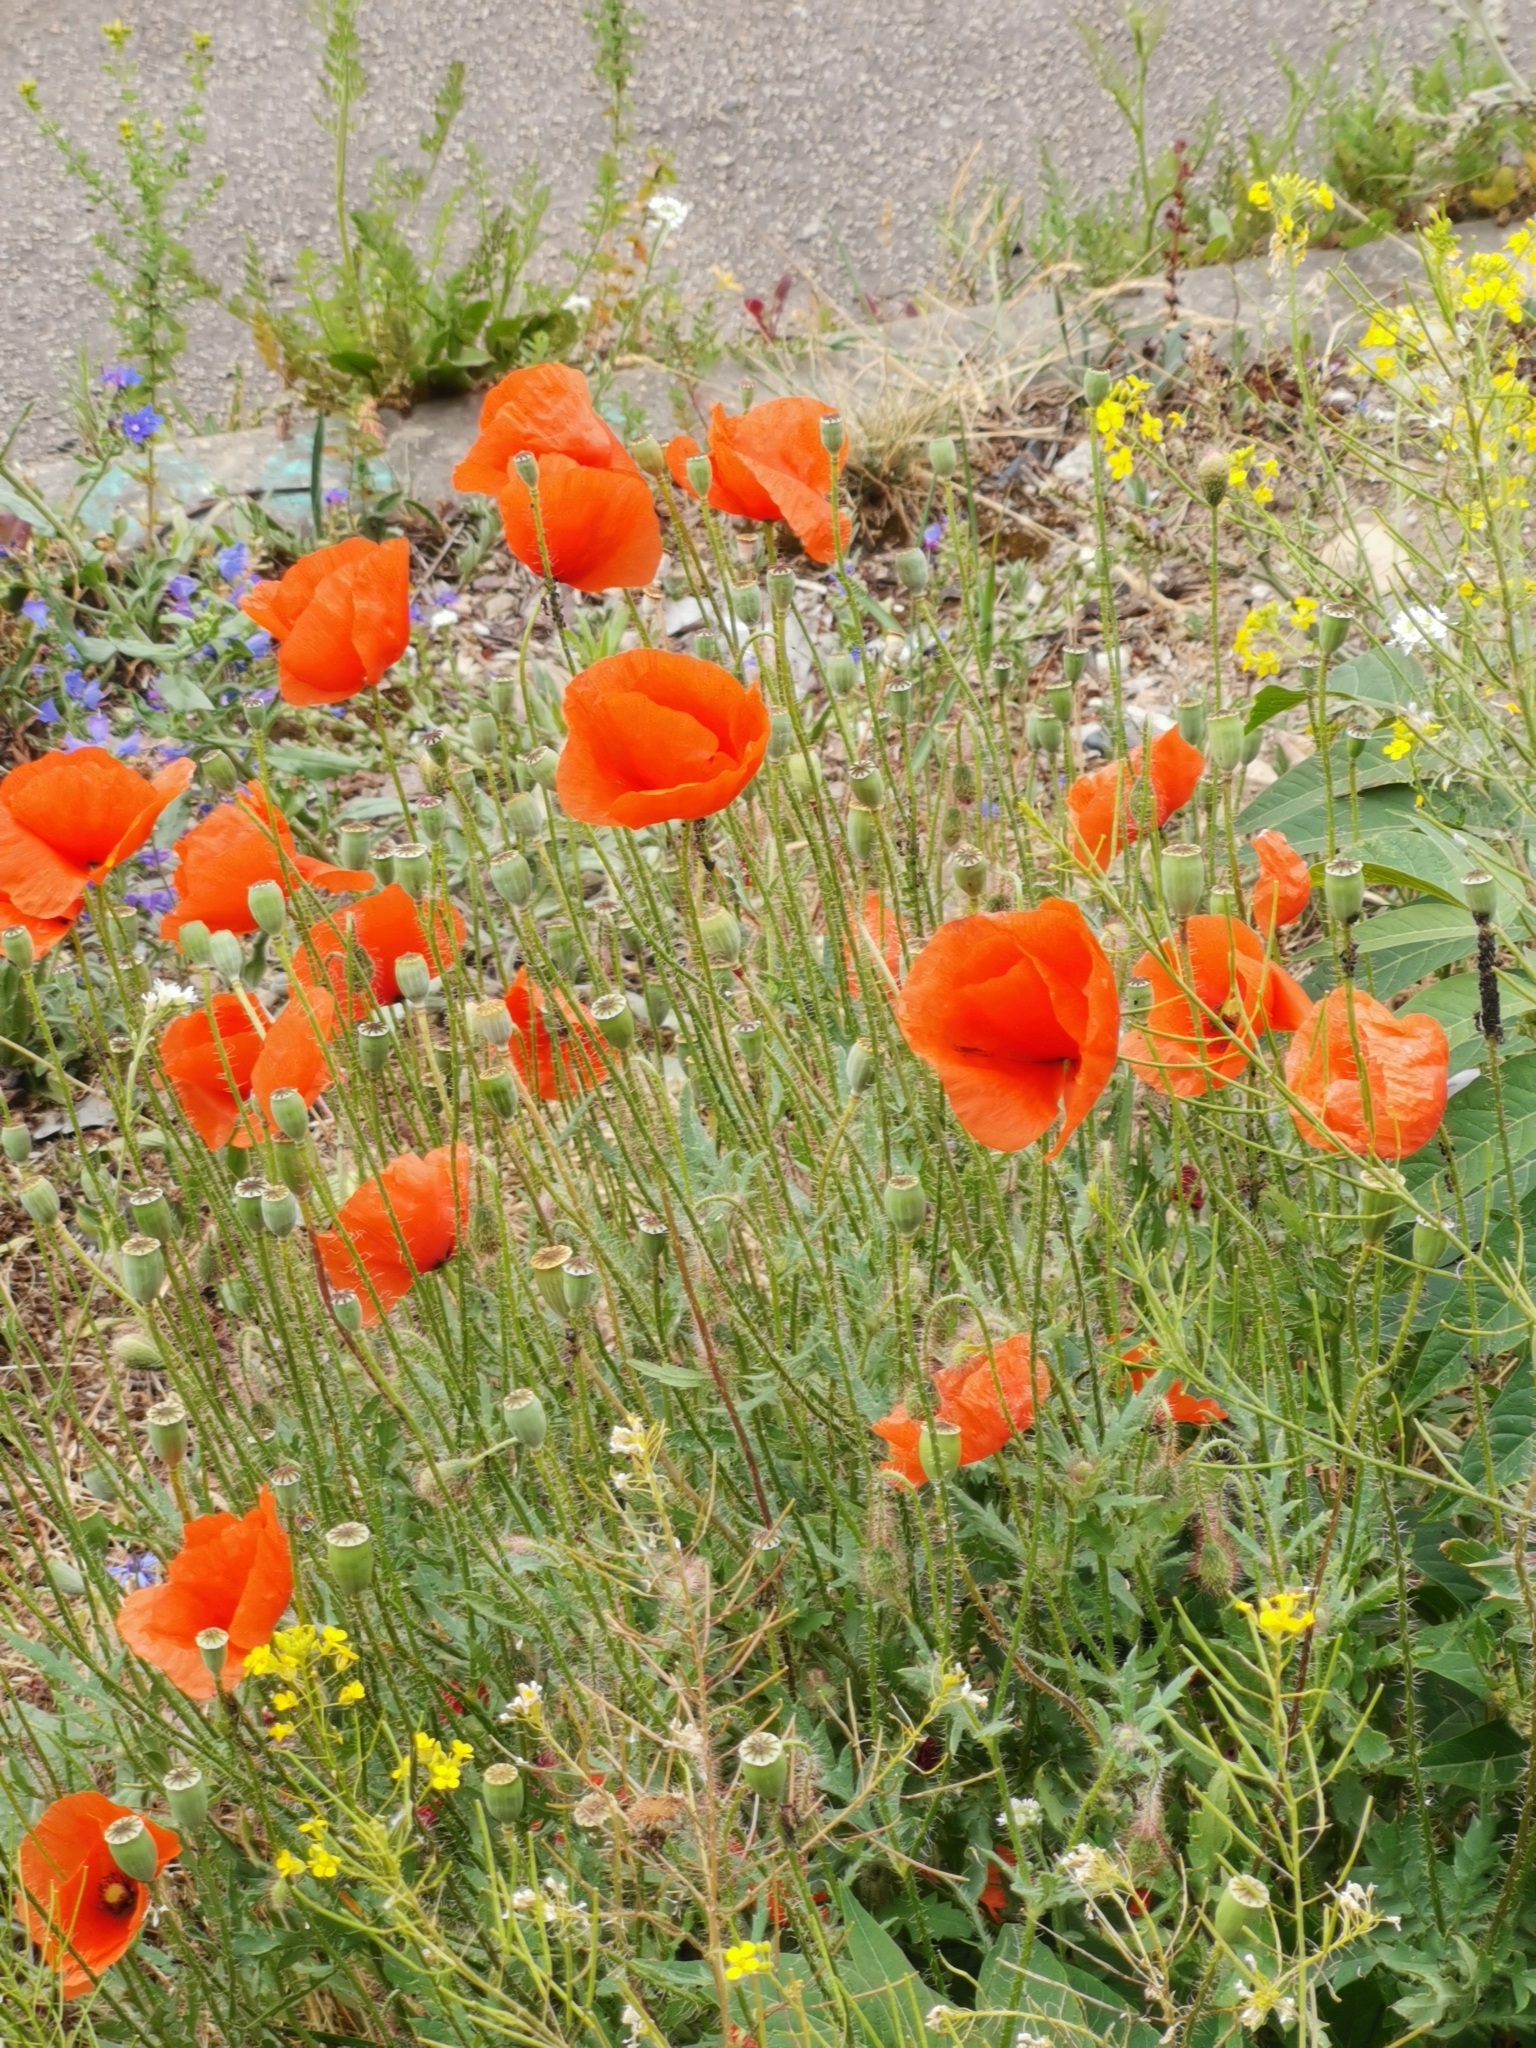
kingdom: Plantae
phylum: Tracheophyta
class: Magnoliopsida
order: Ranunculales
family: Papaveraceae
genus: Papaver
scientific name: Papaver rhoeas
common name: Corn poppy
